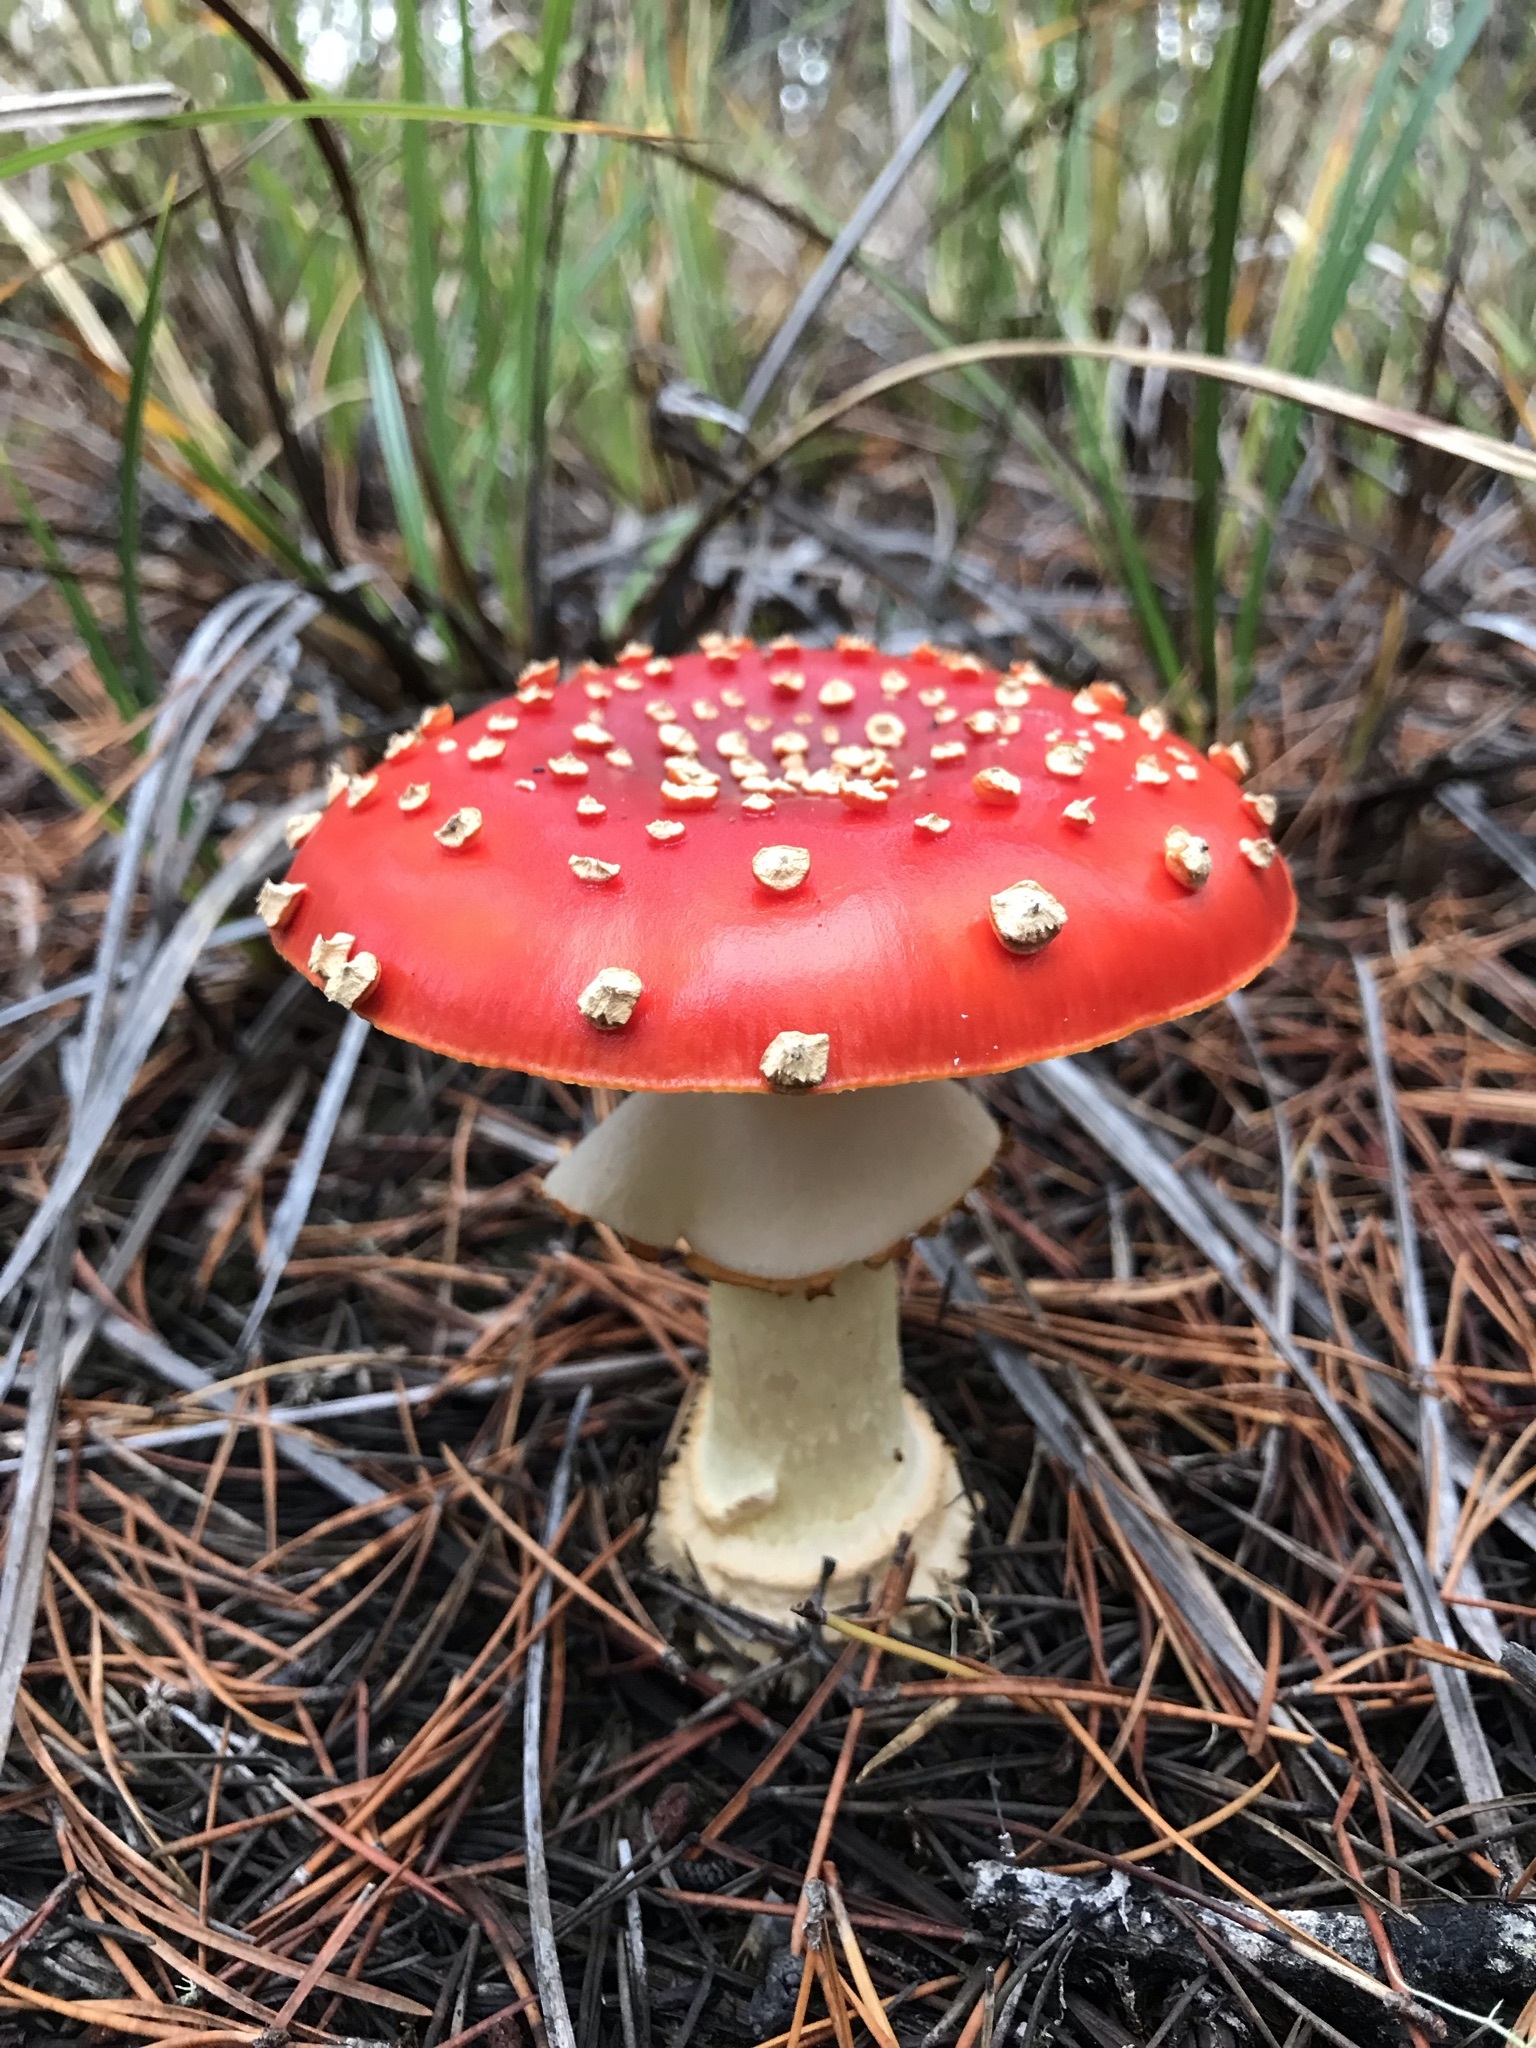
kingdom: Fungi
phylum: Basidiomycota
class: Agaricomycetes
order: Agaricales
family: Amanitaceae
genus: Amanita
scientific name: Amanita muscaria
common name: Fly agaric
